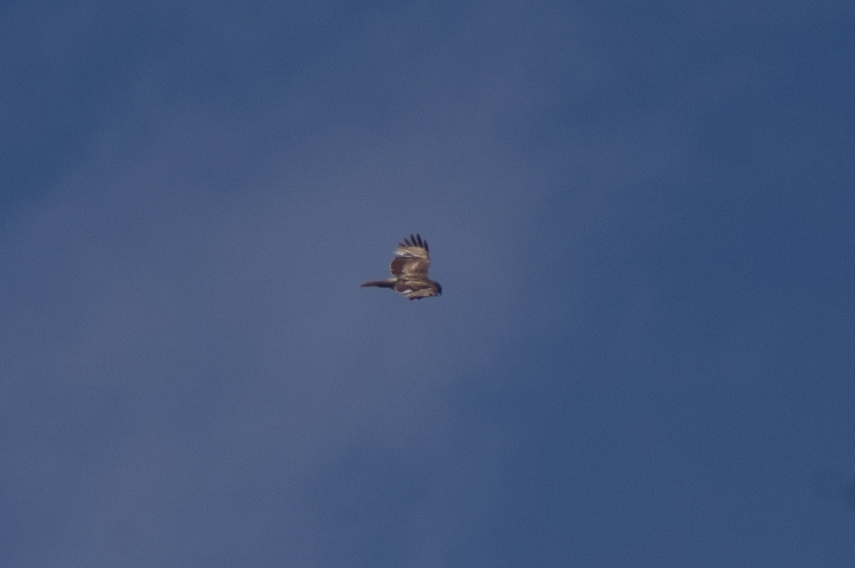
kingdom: Animalia
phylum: Chordata
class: Aves
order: Accipitriformes
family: Accipitridae
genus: Buteo
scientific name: Buteo jamaicensis
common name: Red-tailed hawk
